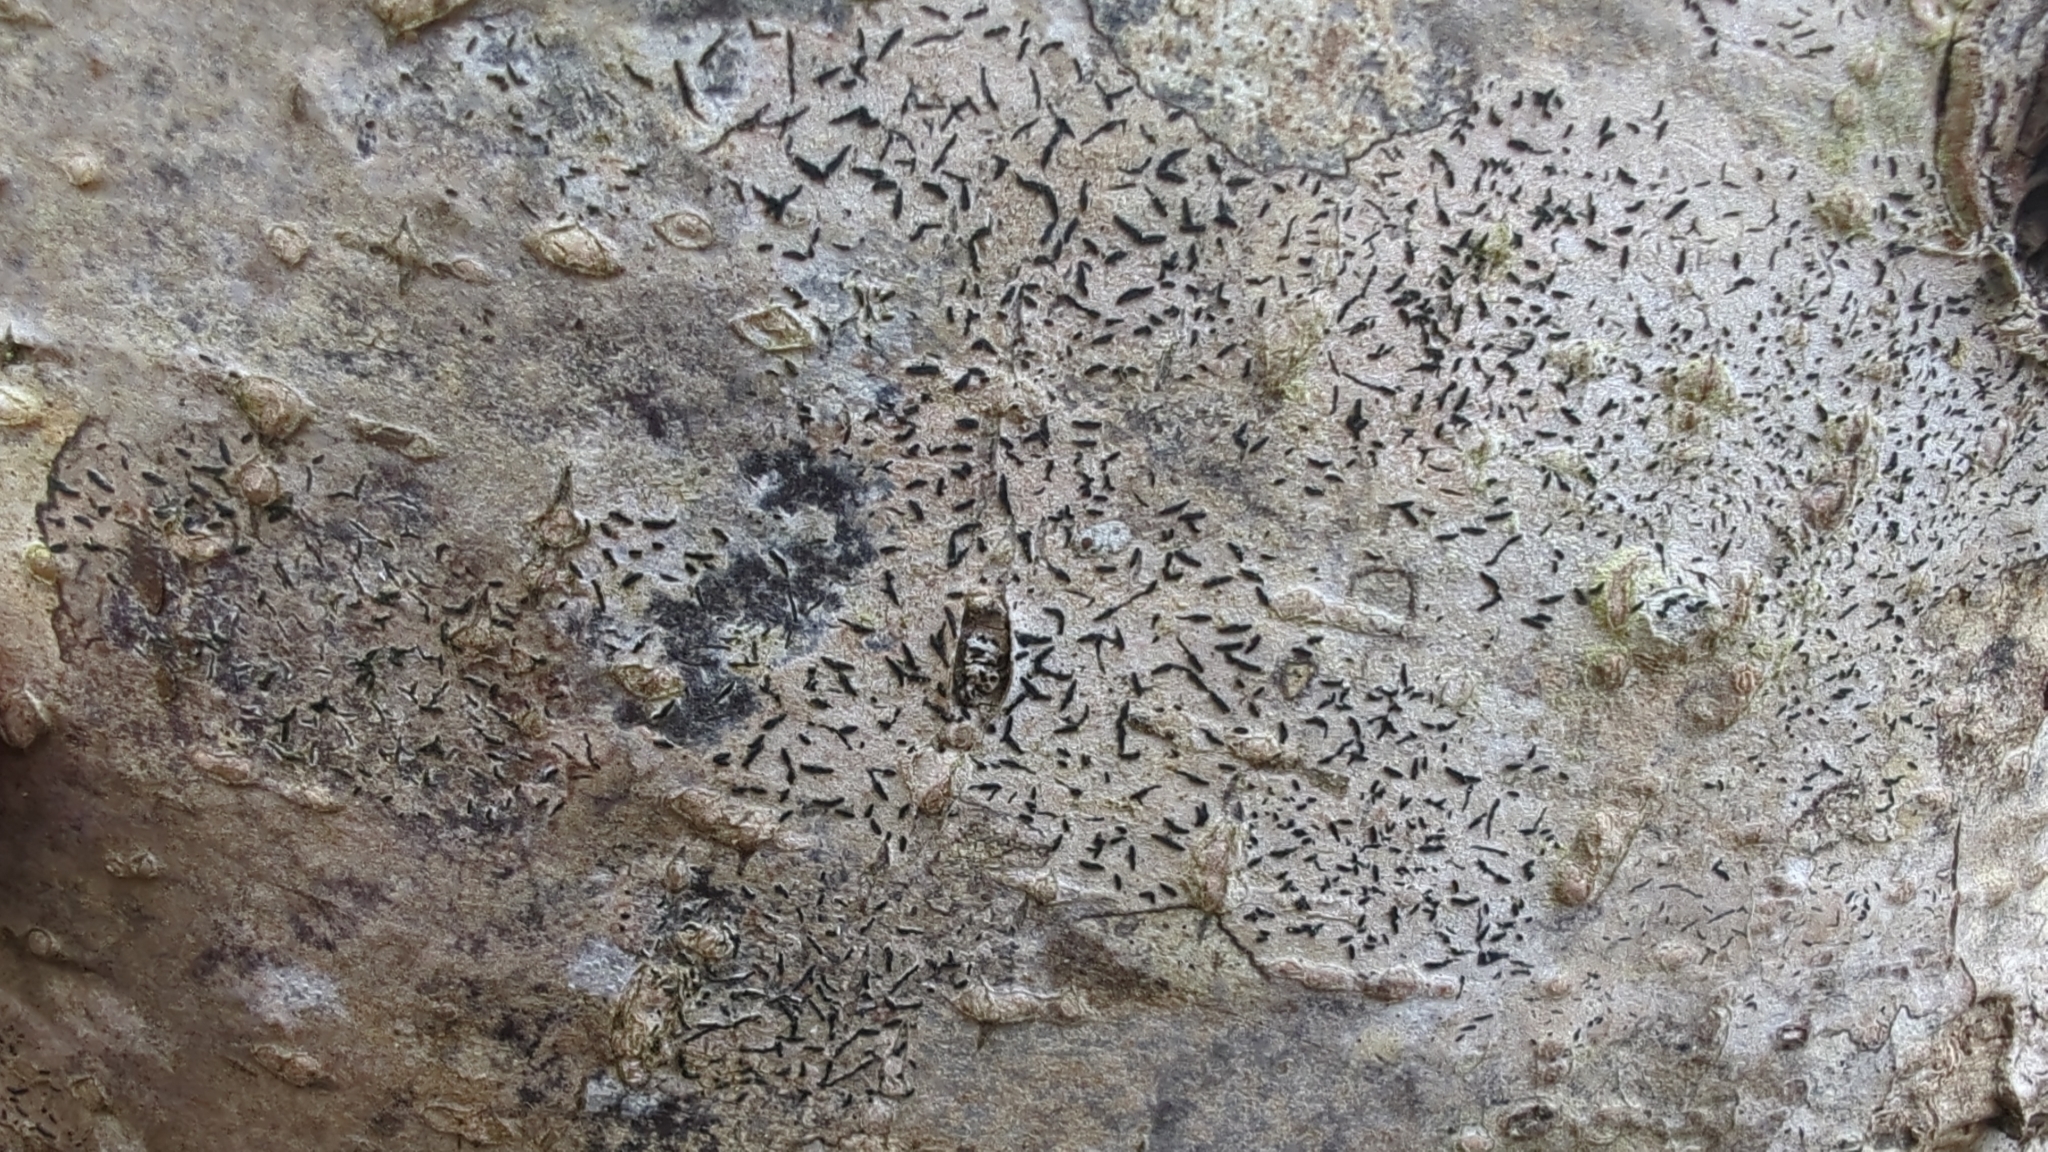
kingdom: Fungi
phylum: Ascomycota
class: Lecanoromycetes
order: Ostropales
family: Graphidaceae
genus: Graphis
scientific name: Graphis scripta
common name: Script lichen
